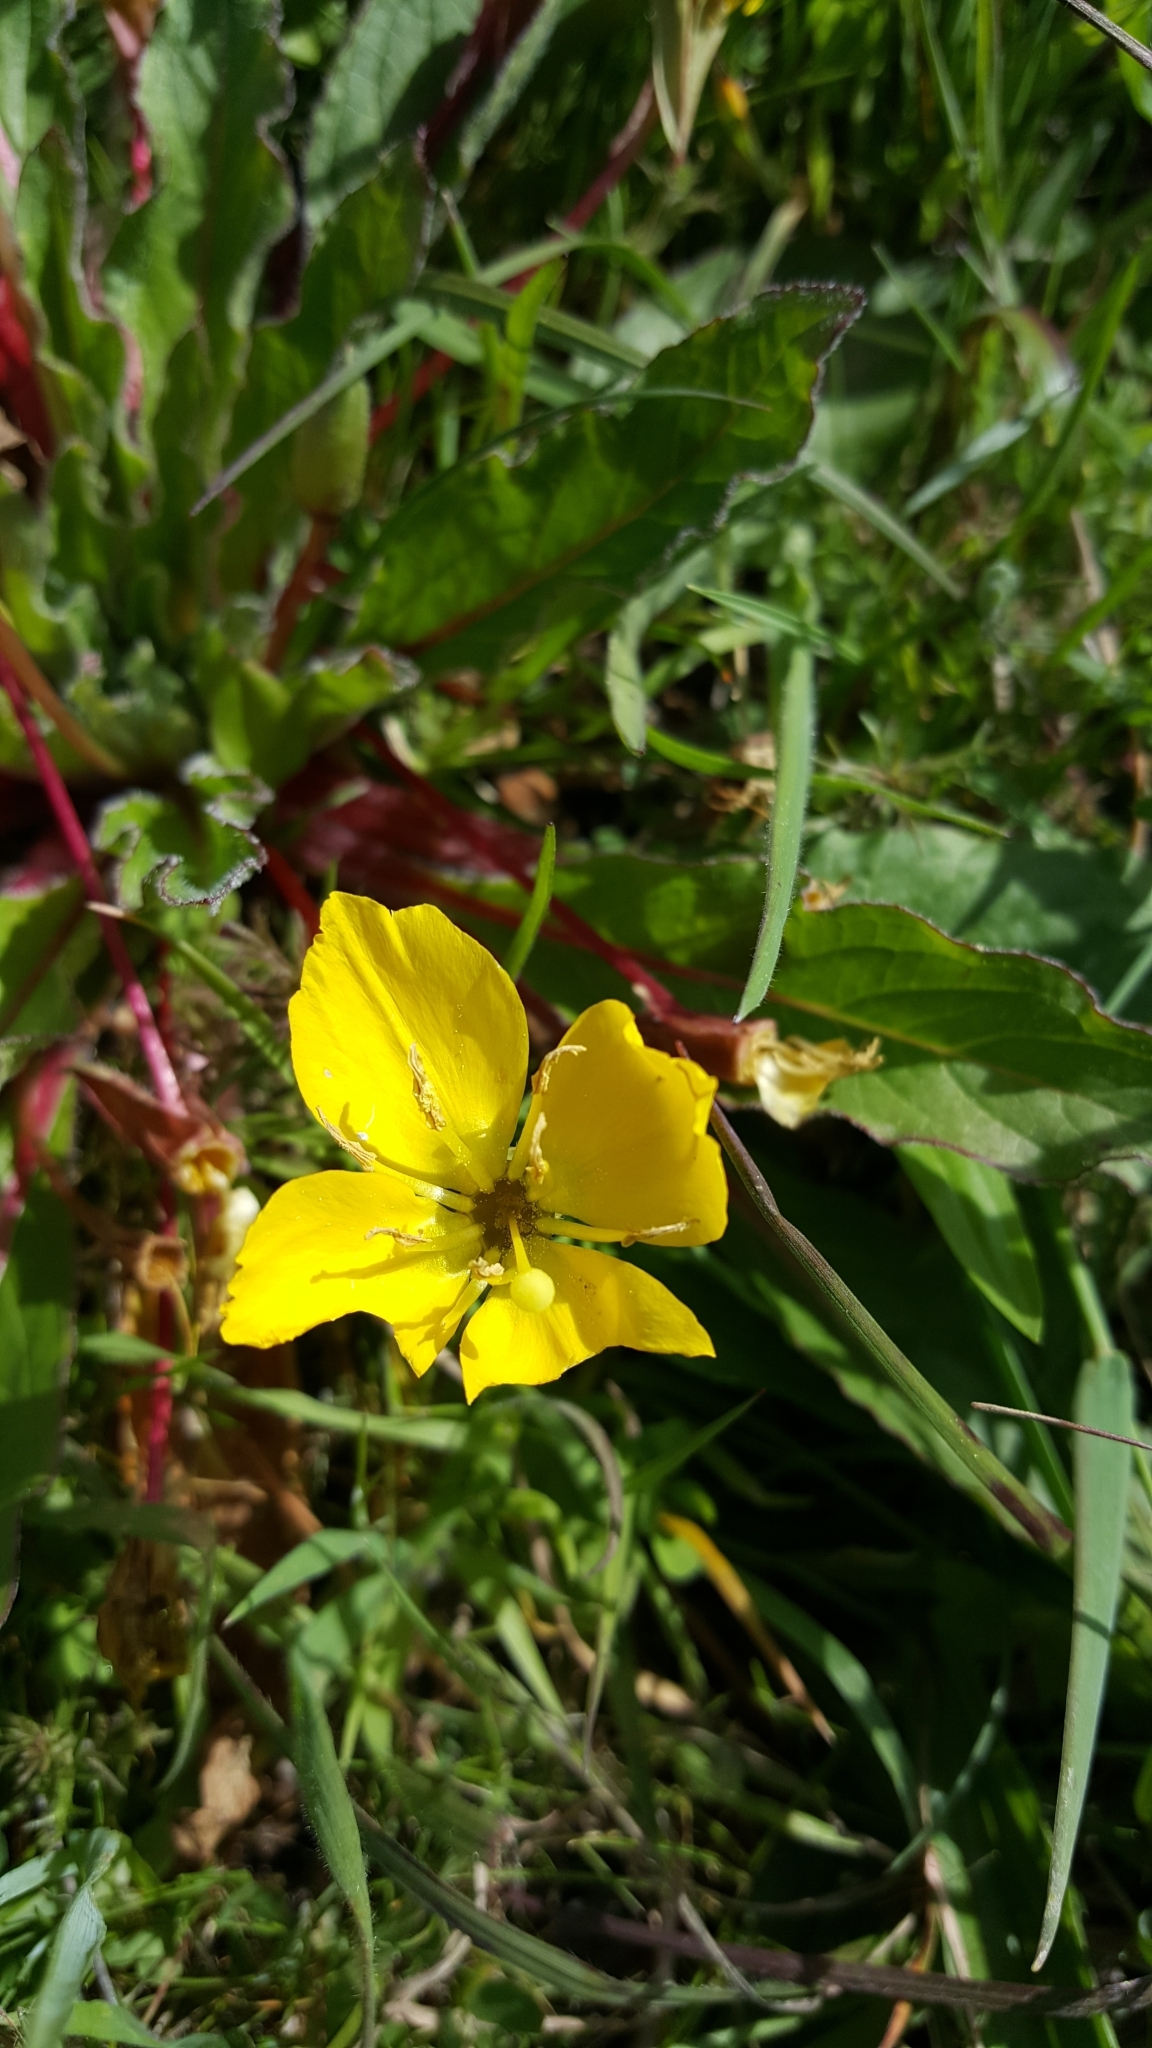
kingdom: Plantae
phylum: Tracheophyta
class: Magnoliopsida
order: Myrtales
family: Onagraceae
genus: Taraxia
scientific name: Taraxia ovata
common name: Goldeneggs
